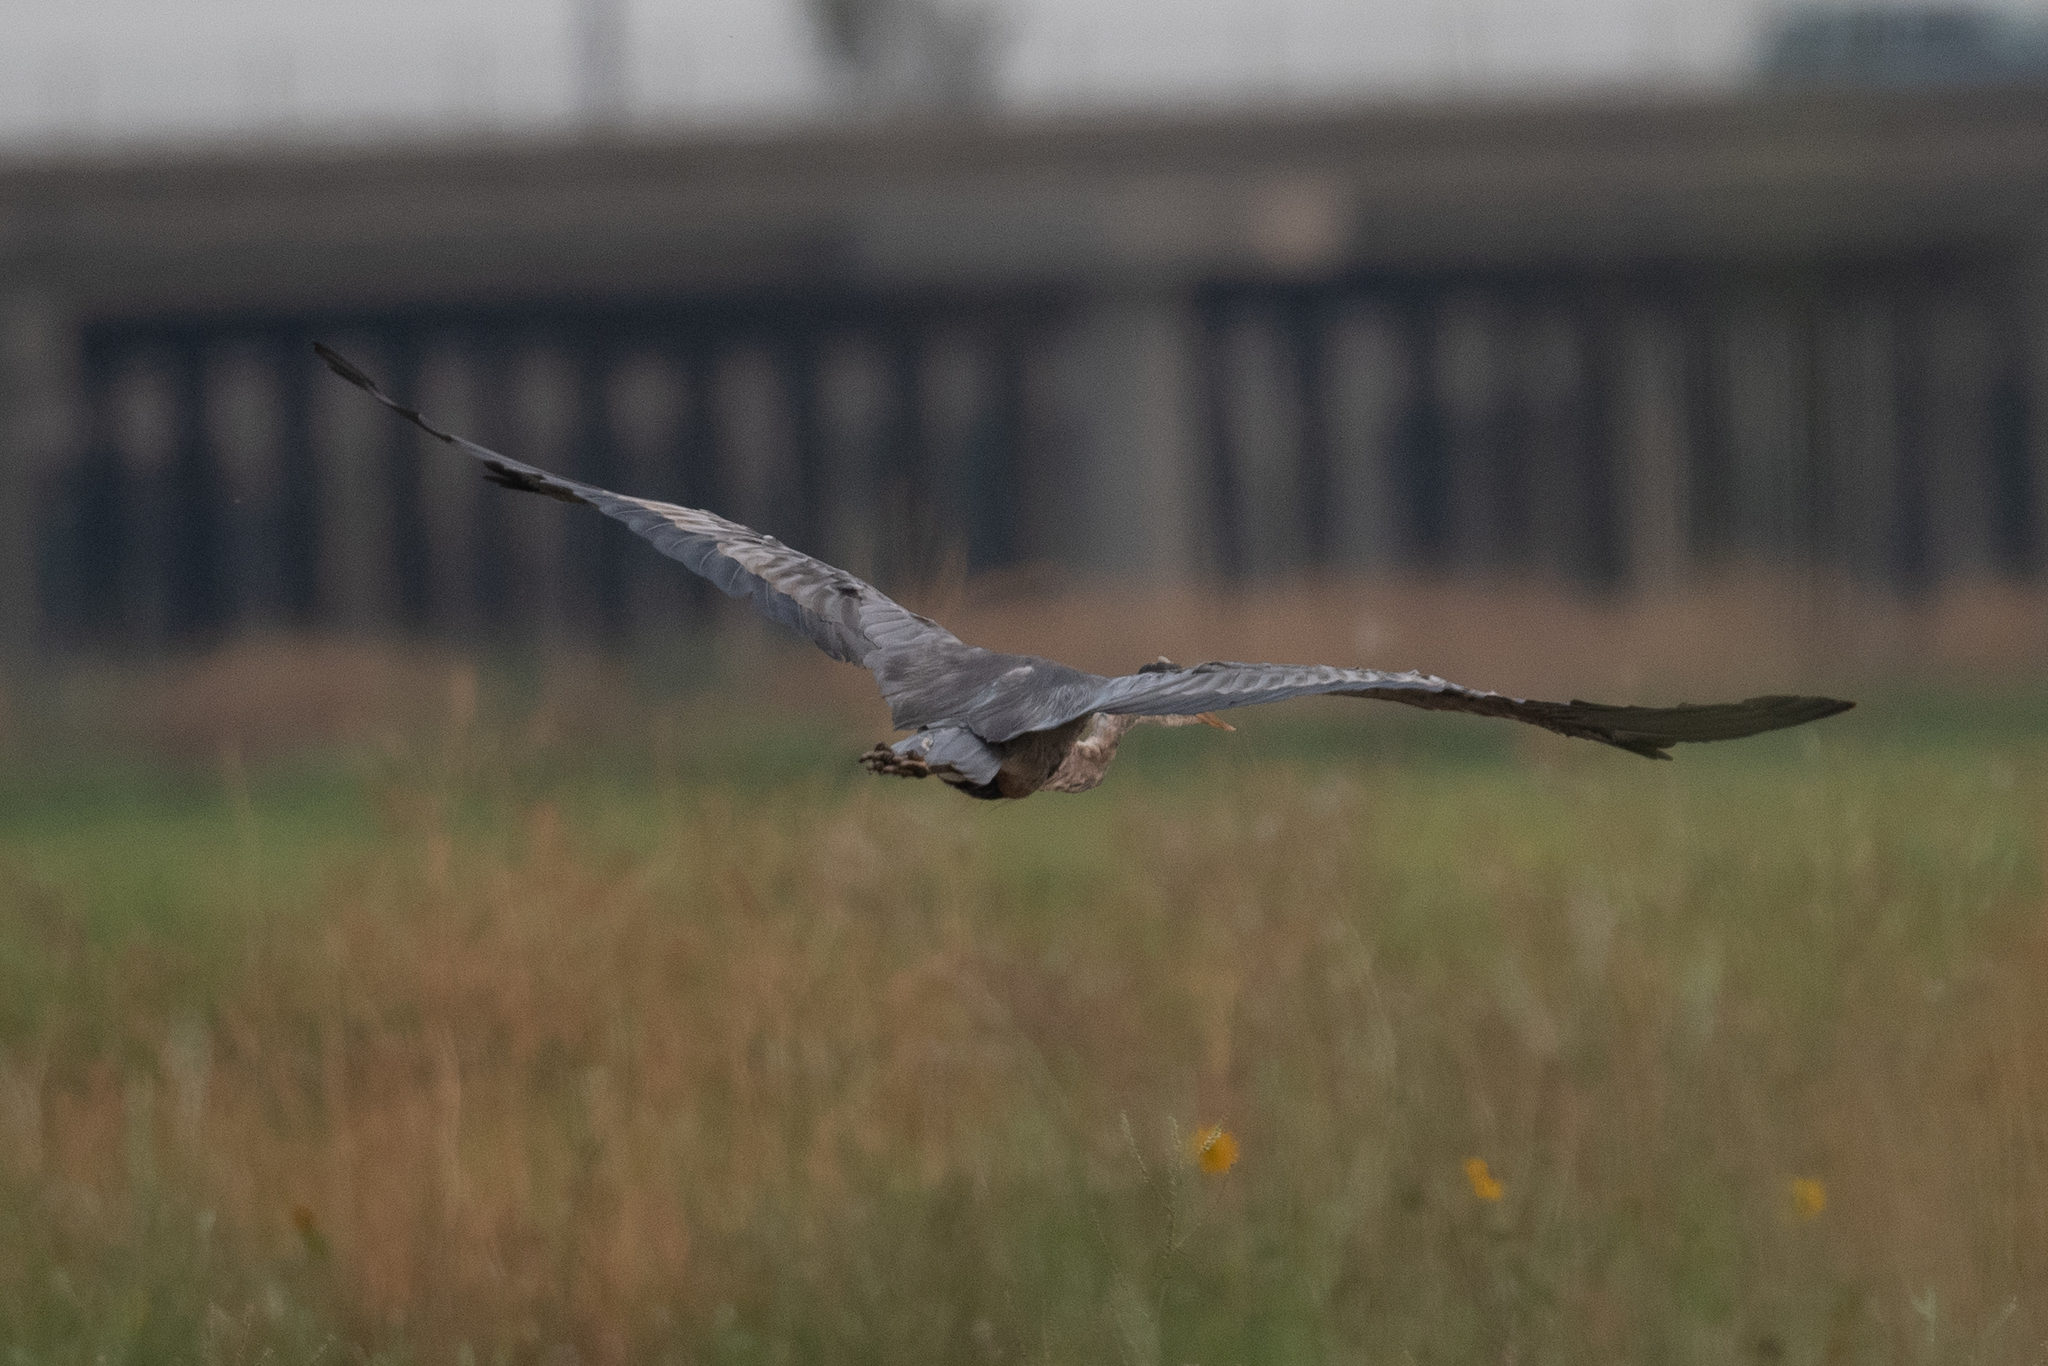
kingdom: Animalia
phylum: Chordata
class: Aves
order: Pelecaniformes
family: Ardeidae
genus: Ardea
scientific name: Ardea herodias
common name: Great blue heron
